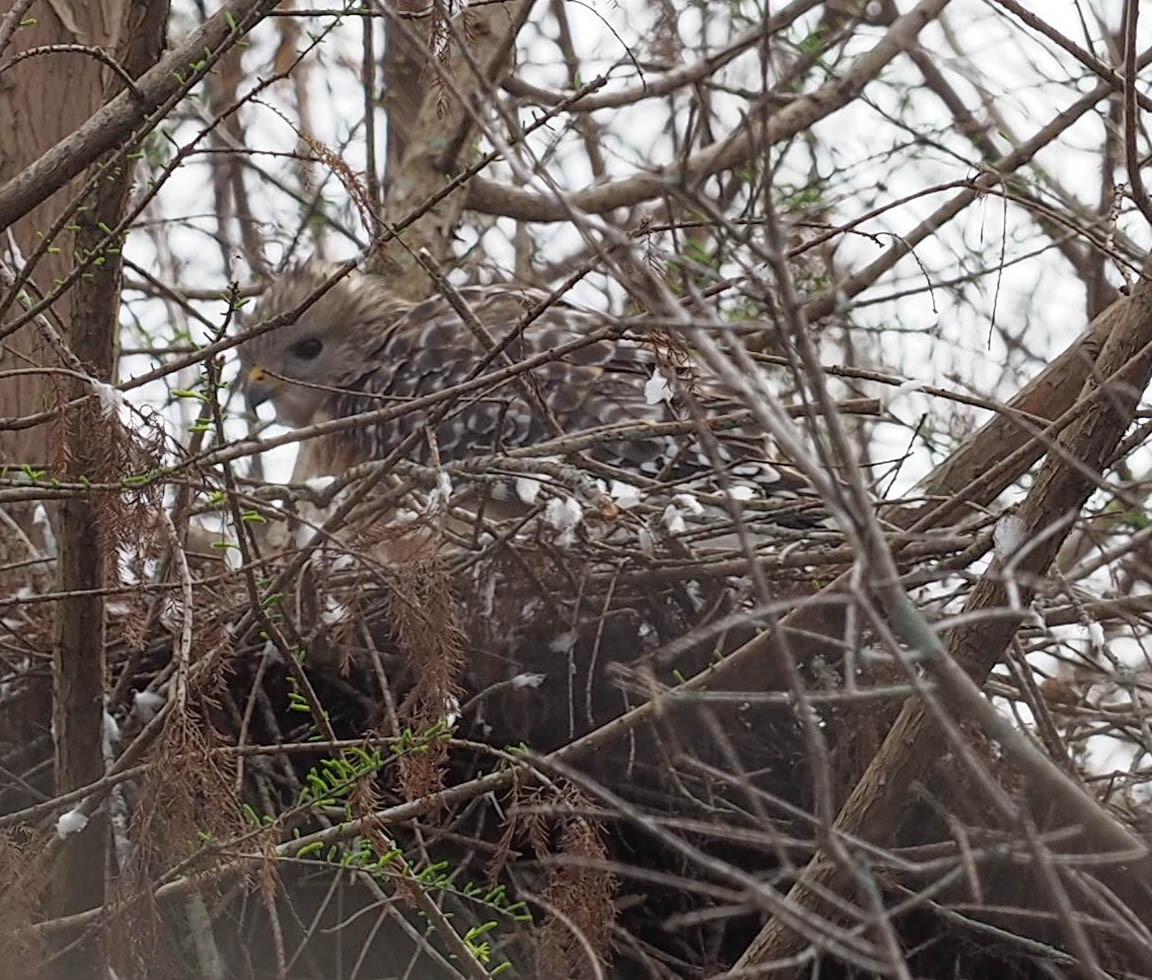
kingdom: Animalia
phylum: Chordata
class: Aves
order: Accipitriformes
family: Accipitridae
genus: Buteo
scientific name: Buteo lineatus
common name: Red-shouldered hawk
